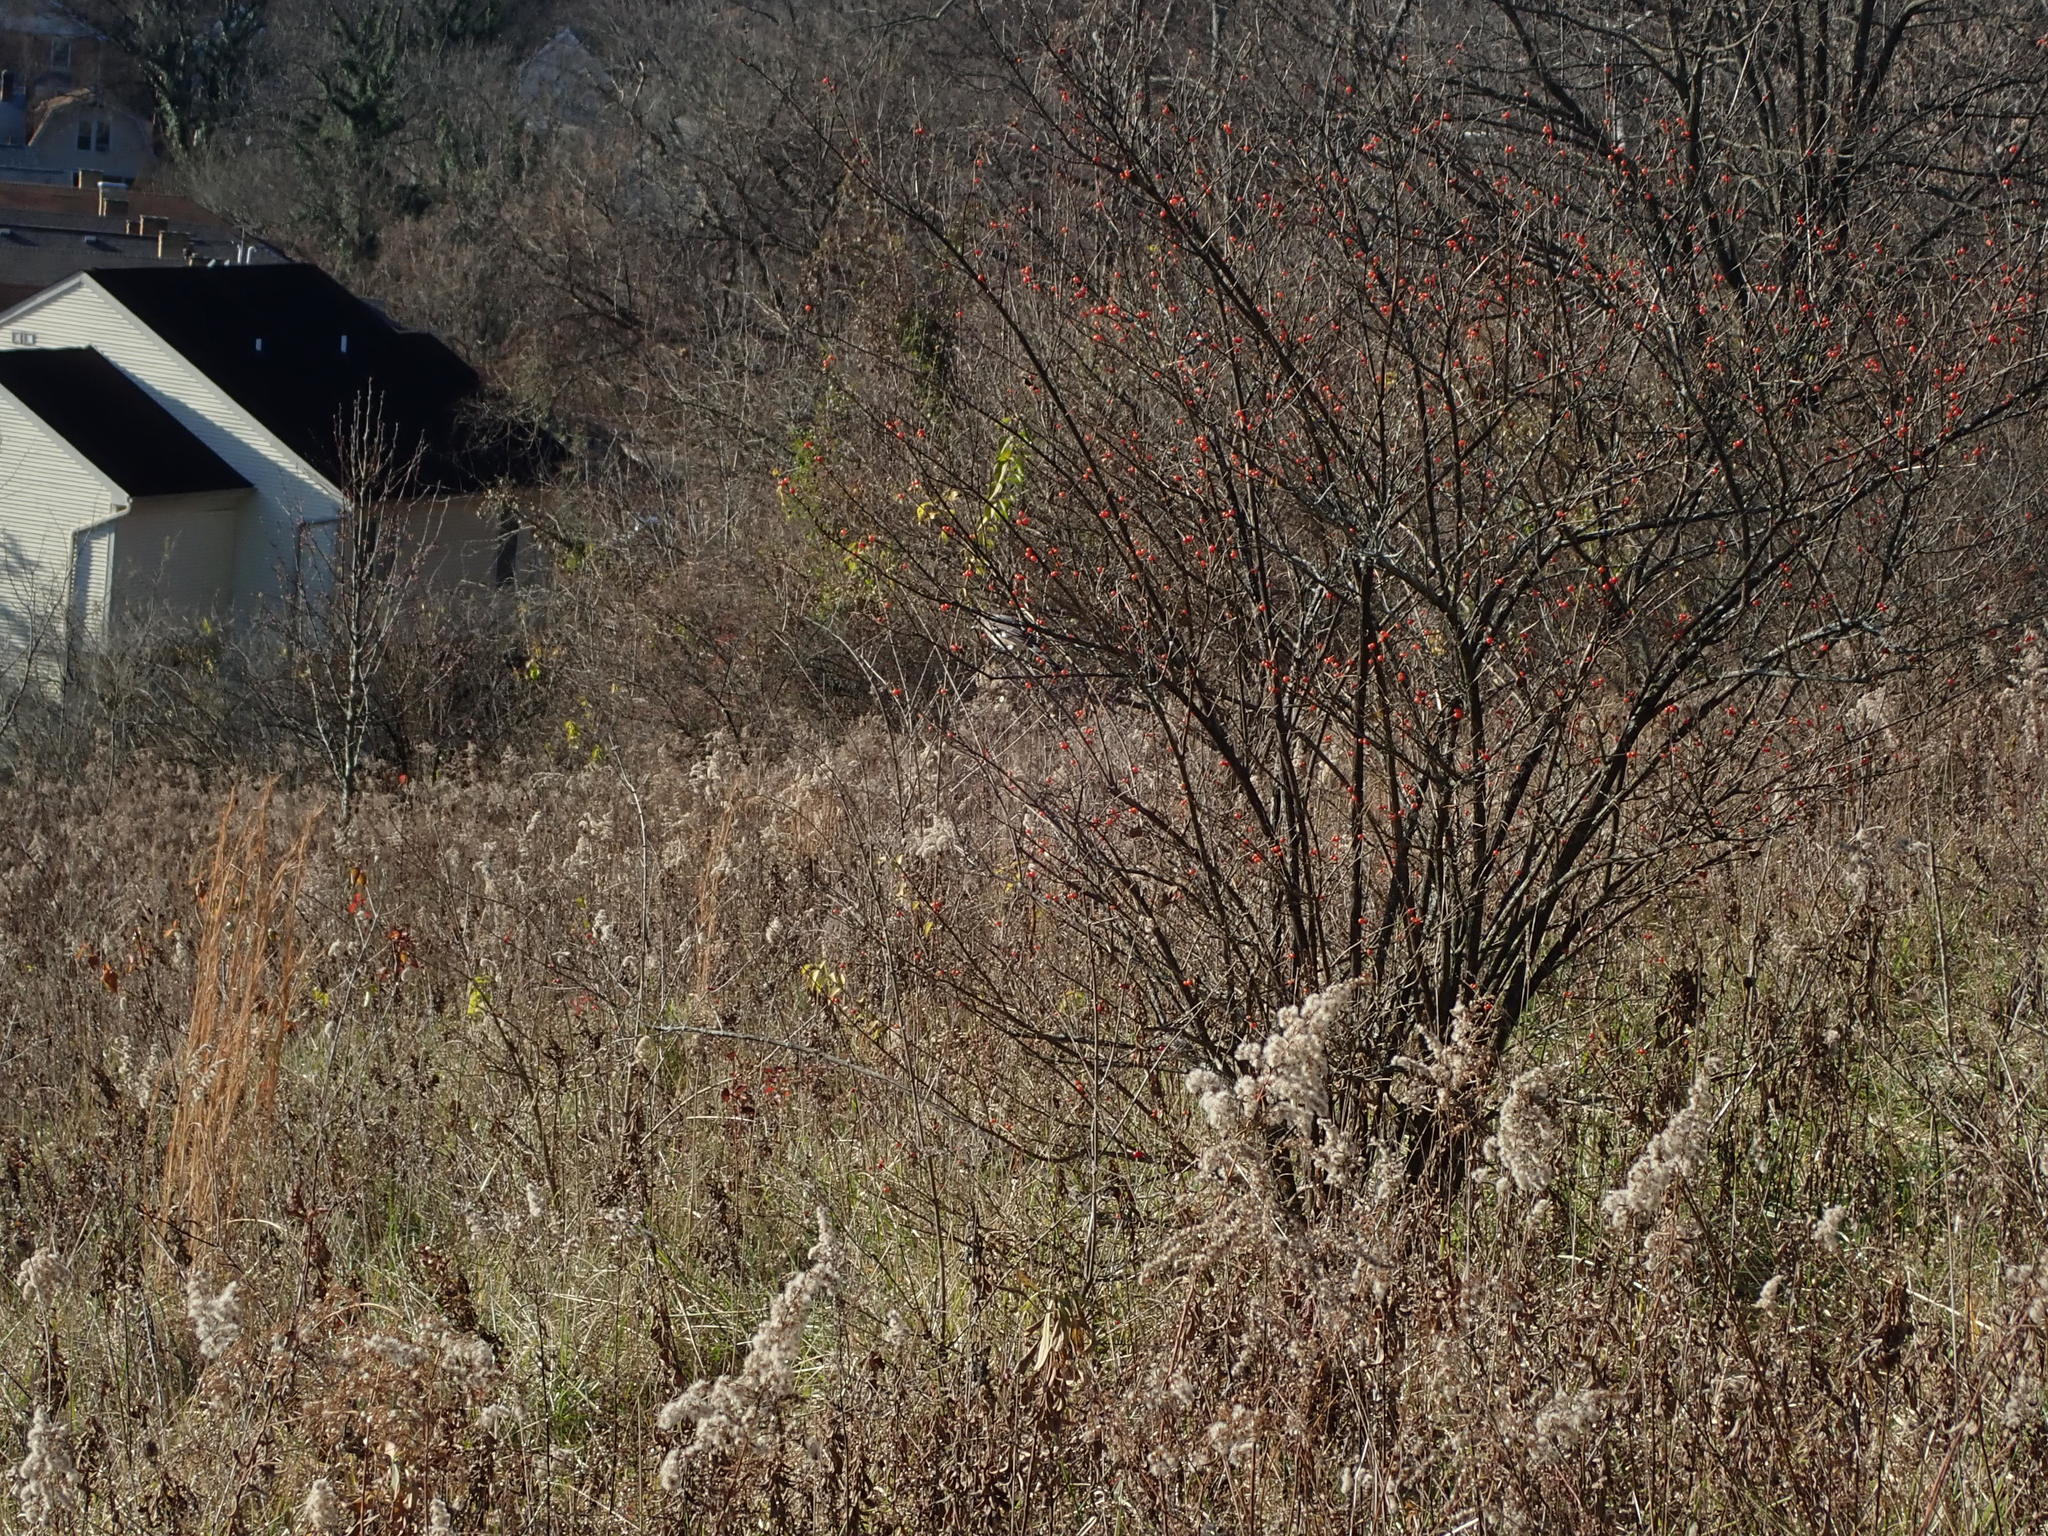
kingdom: Animalia
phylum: Chordata
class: Aves
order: Passeriformes
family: Mimidae
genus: Mimus
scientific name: Mimus polyglottos
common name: Northern mockingbird
